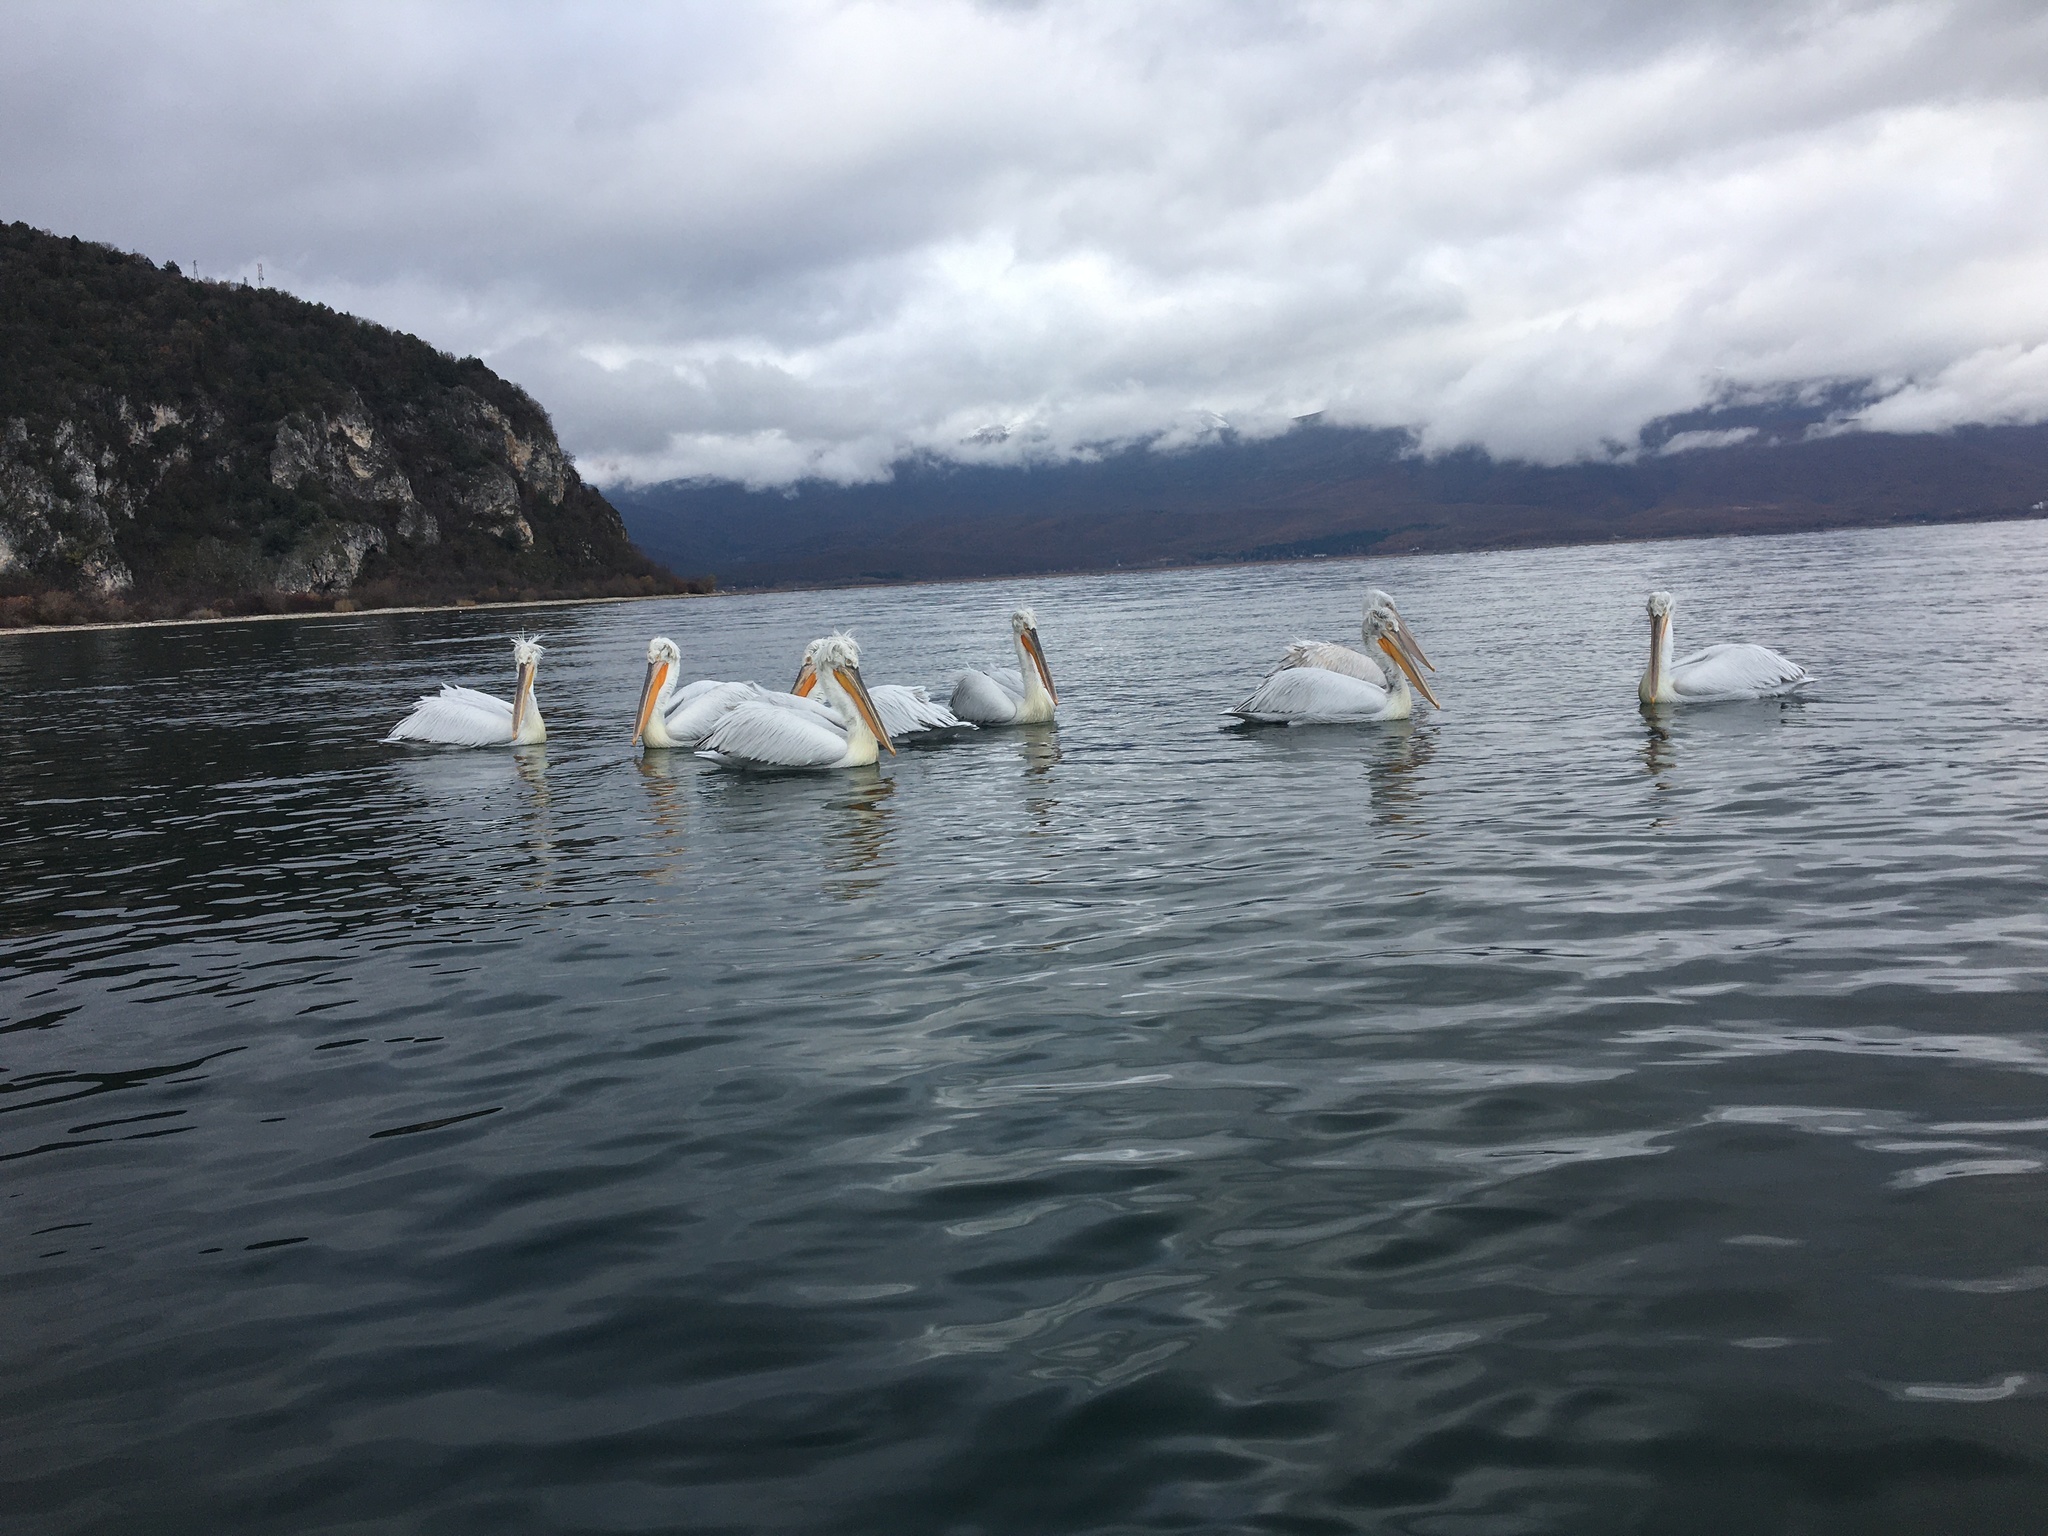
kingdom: Animalia
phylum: Chordata
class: Aves
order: Pelecaniformes
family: Pelecanidae
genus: Pelecanus
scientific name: Pelecanus crispus
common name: Dalmatian pelican
